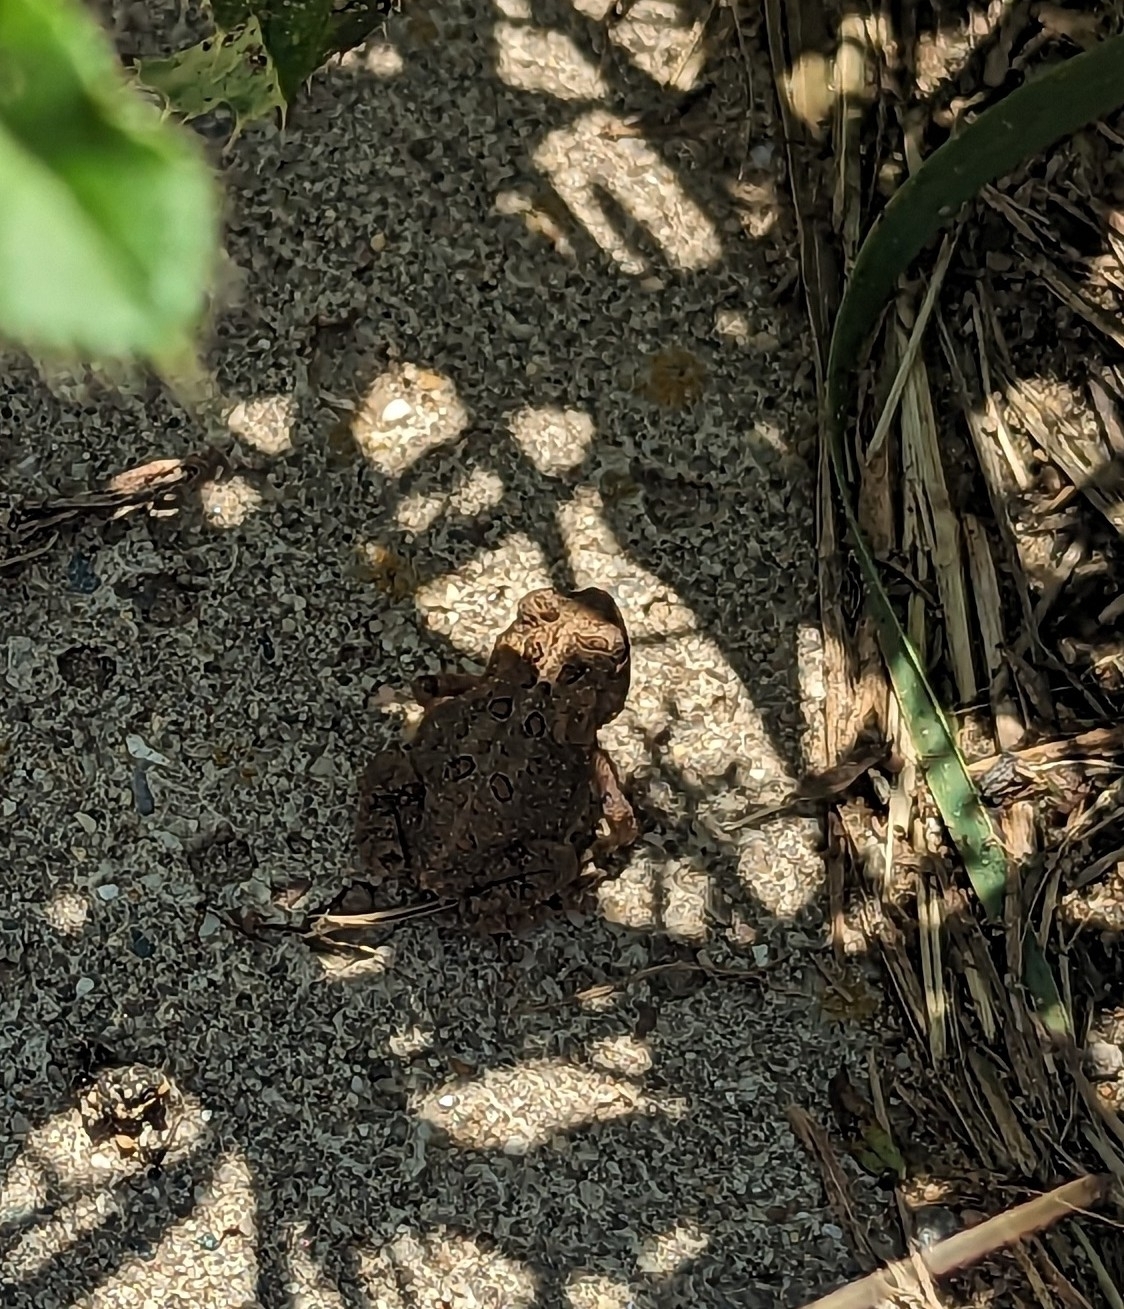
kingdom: Animalia
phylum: Chordata
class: Amphibia
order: Anura
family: Bufonidae
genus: Anaxyrus
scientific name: Anaxyrus americanus
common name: American toad
